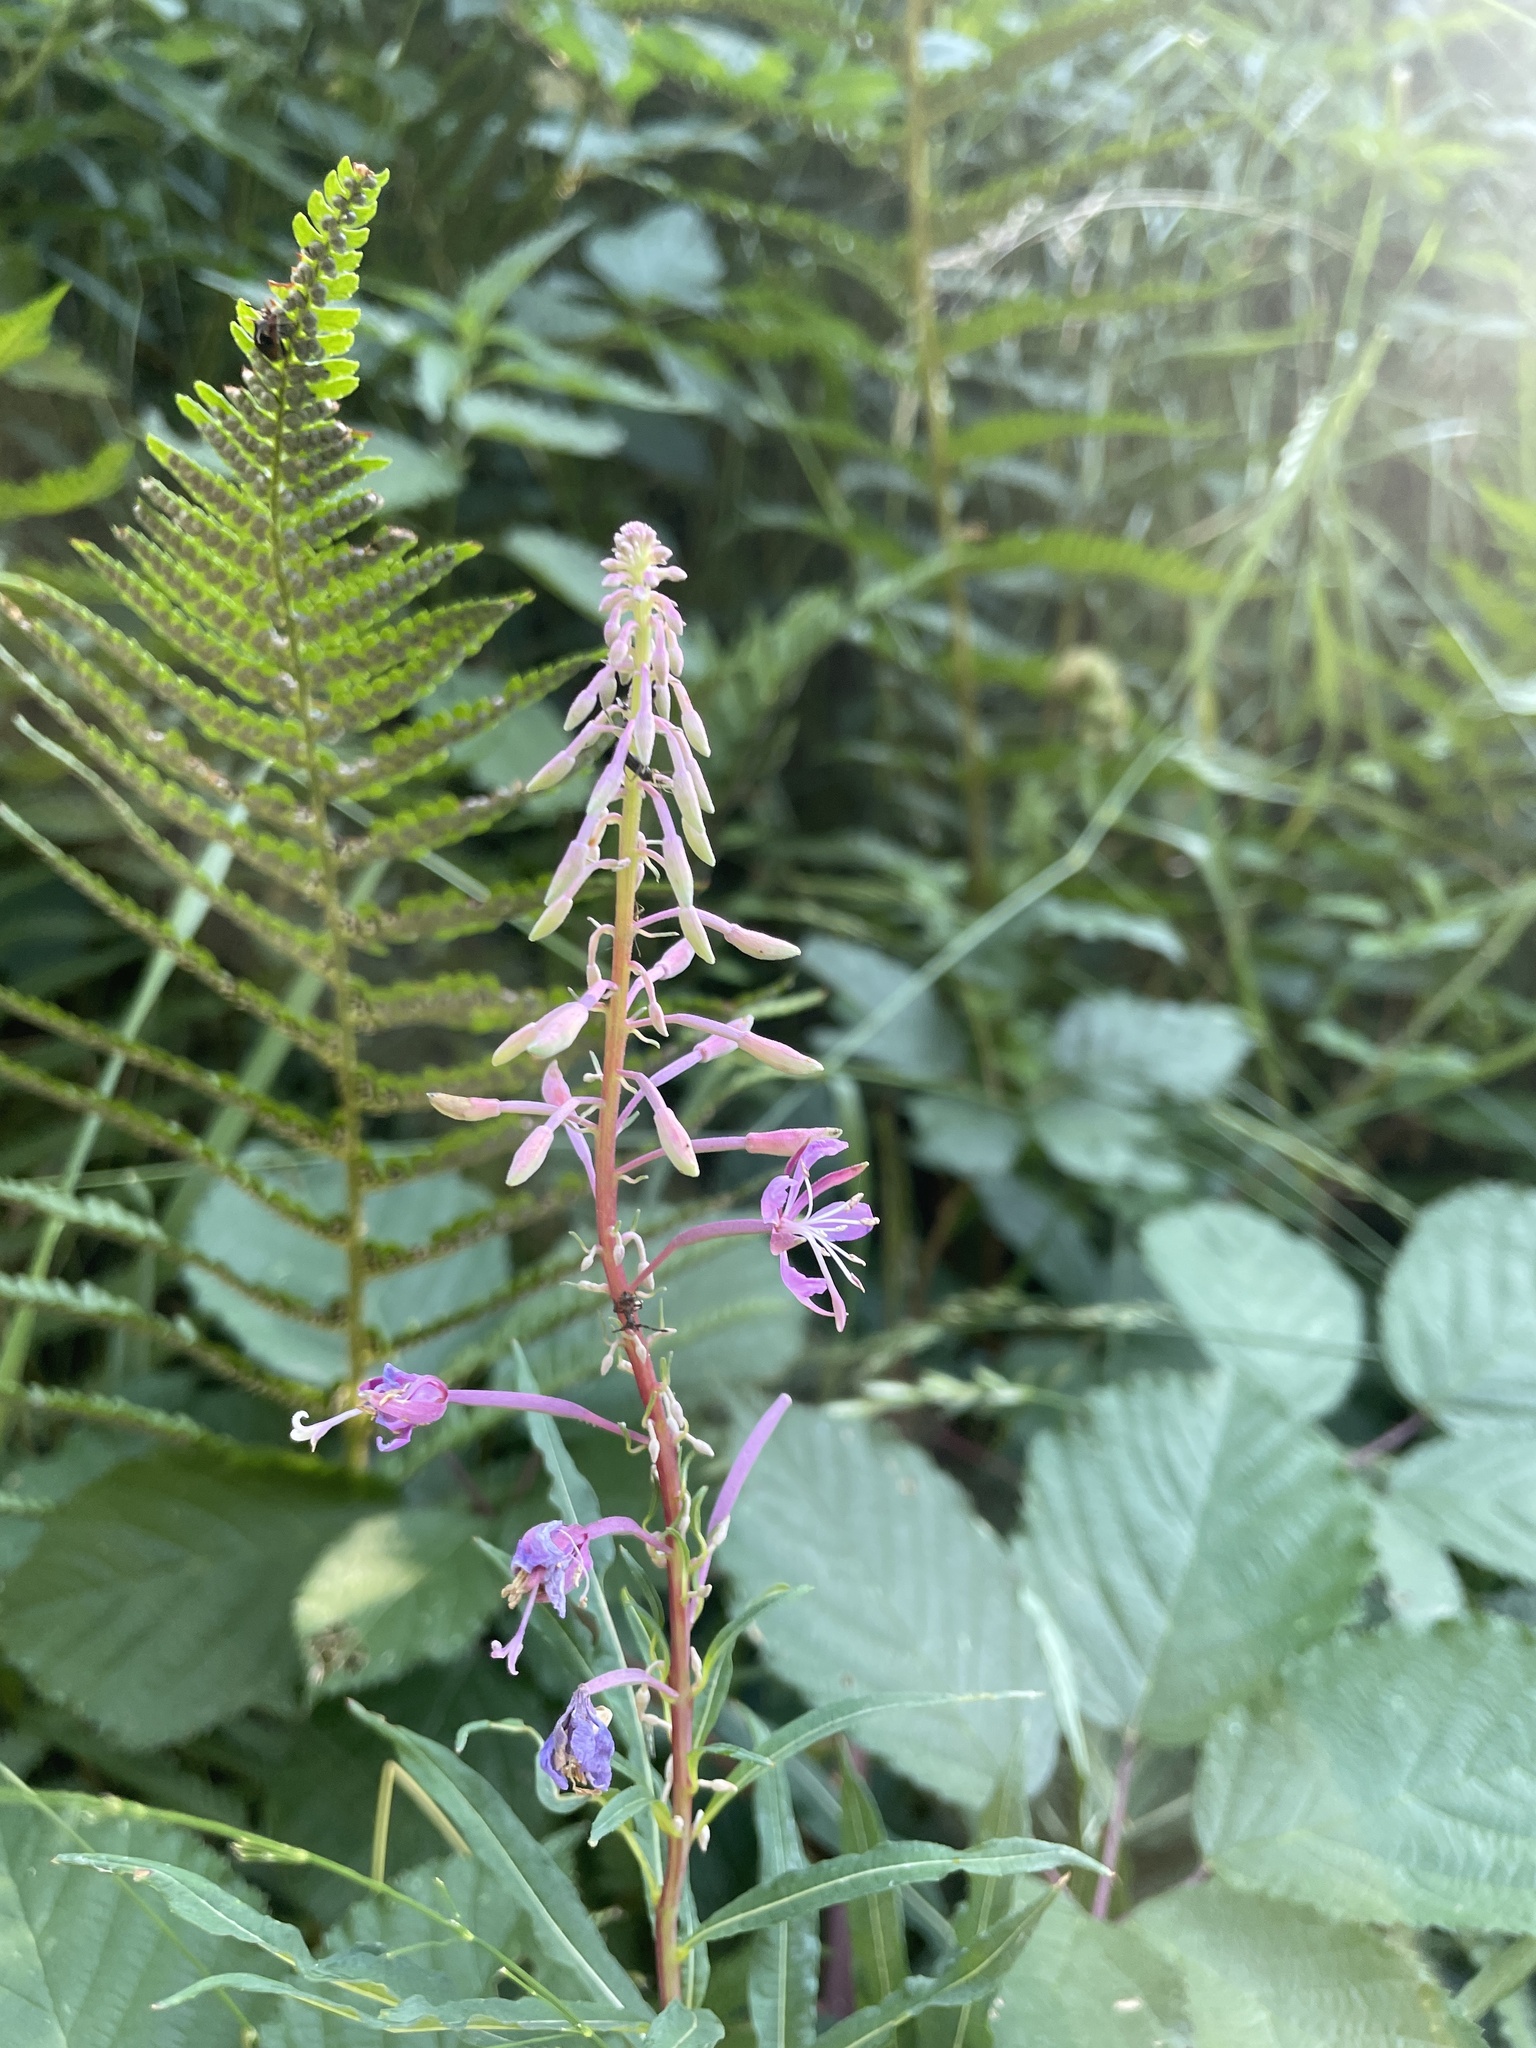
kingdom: Plantae
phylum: Tracheophyta
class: Magnoliopsida
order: Myrtales
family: Onagraceae
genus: Chamaenerion
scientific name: Chamaenerion angustifolium
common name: Fireweed
